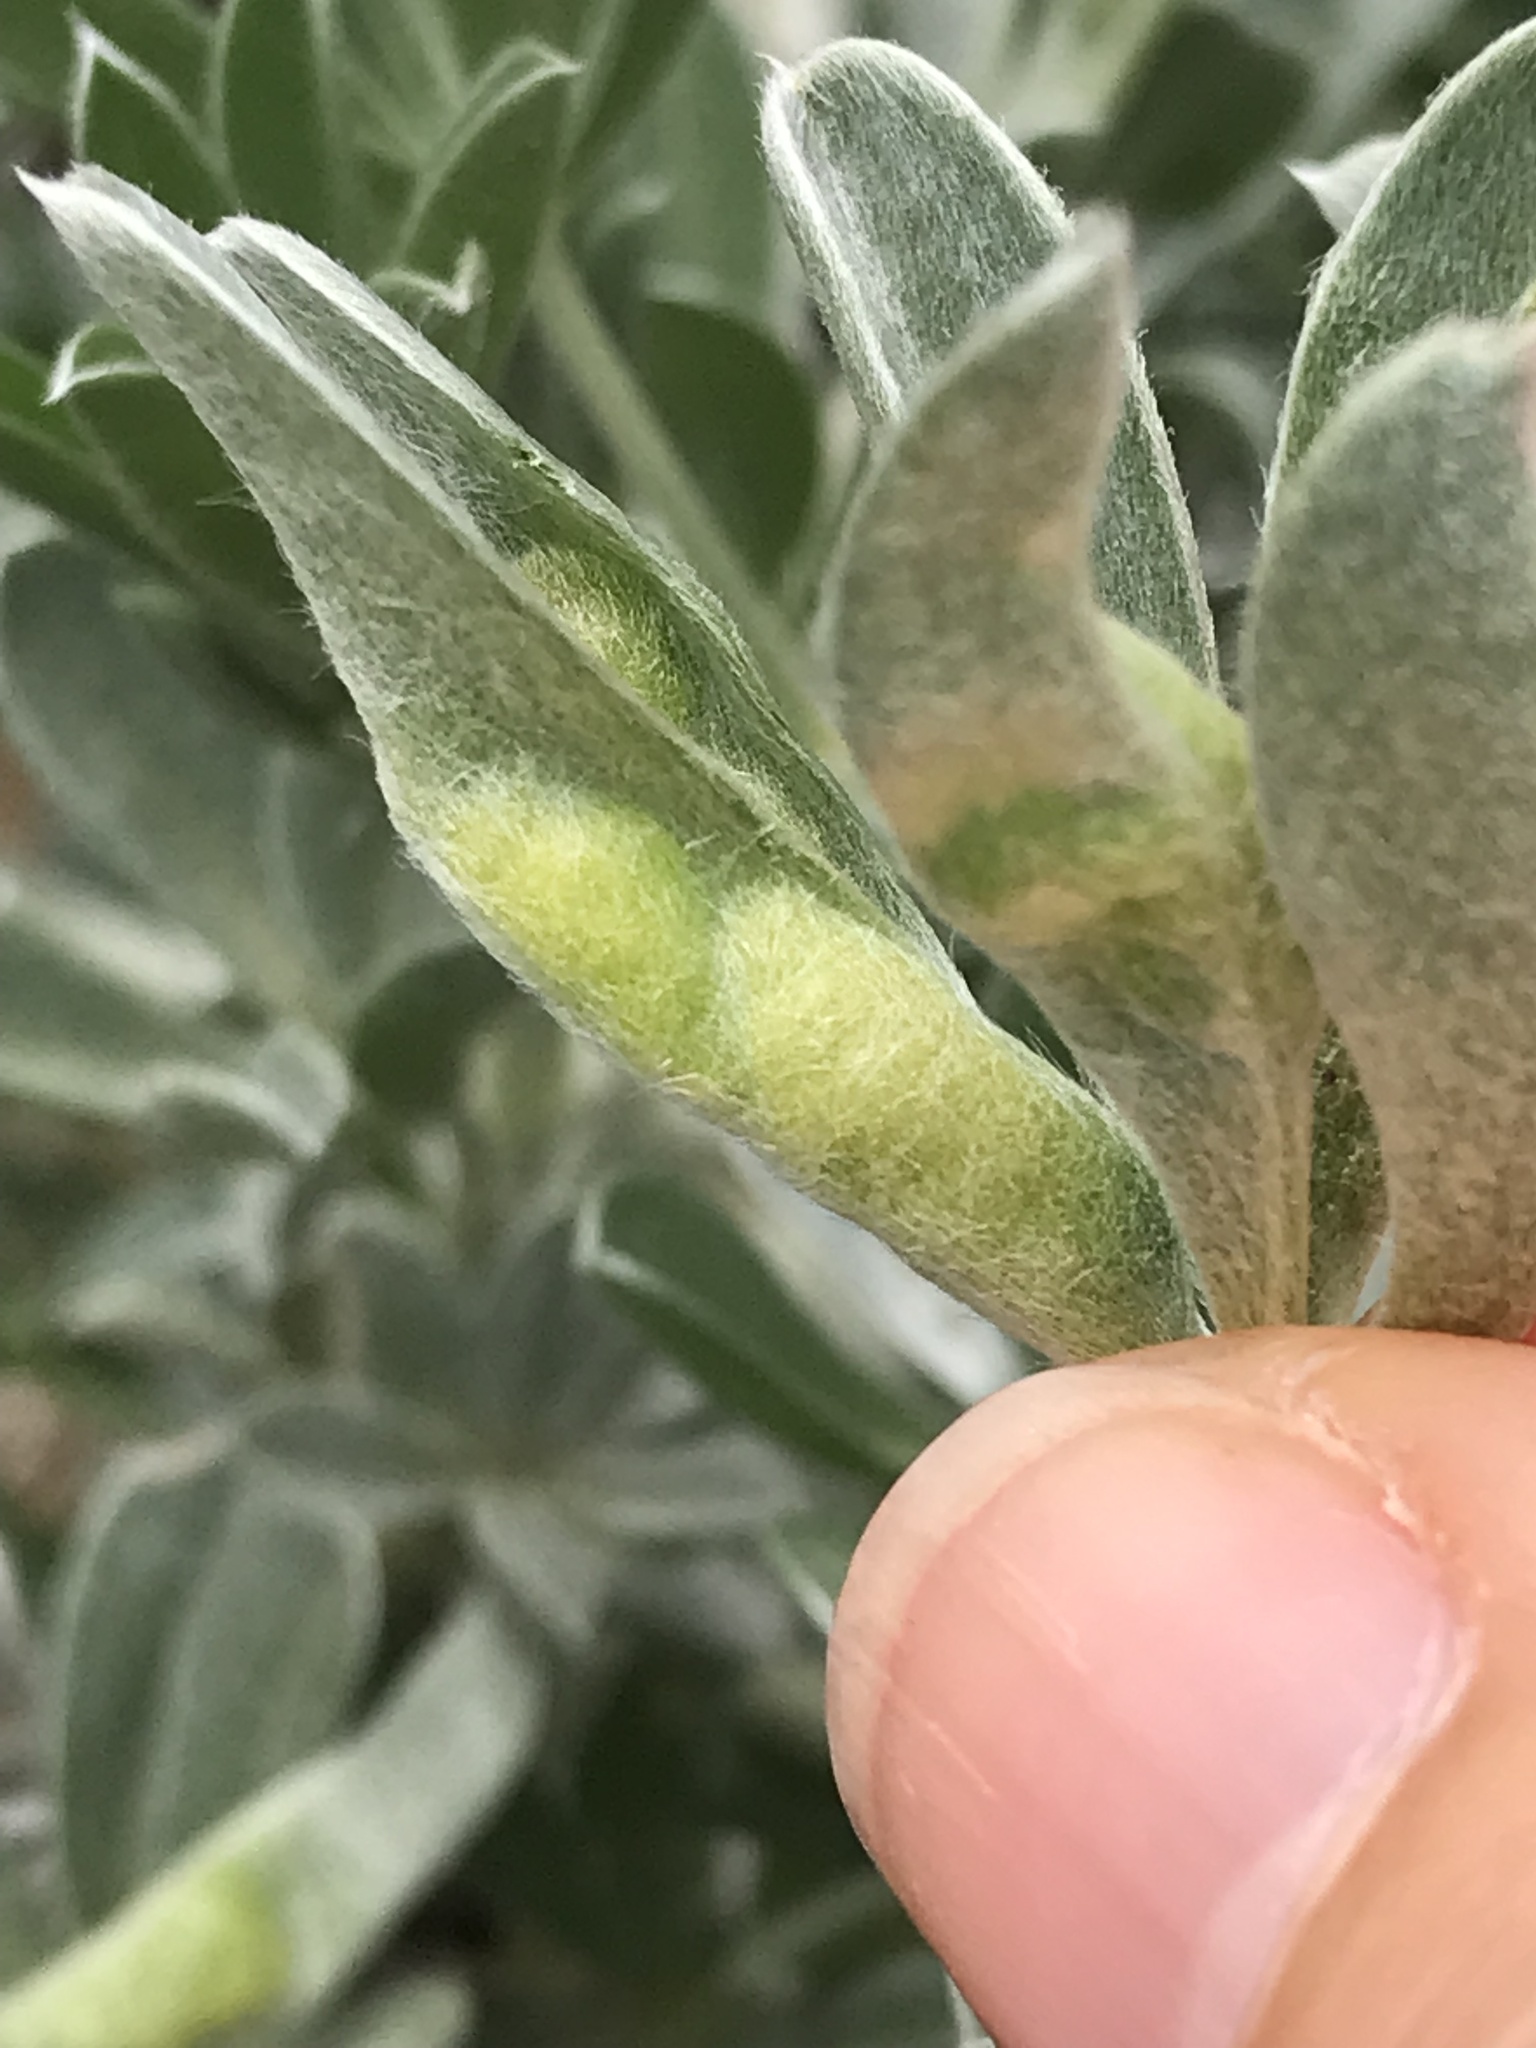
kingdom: Animalia
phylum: Arthropoda
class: Insecta
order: Diptera
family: Cecidomyiidae
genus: Dasineura
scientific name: Dasineura lupinorum
